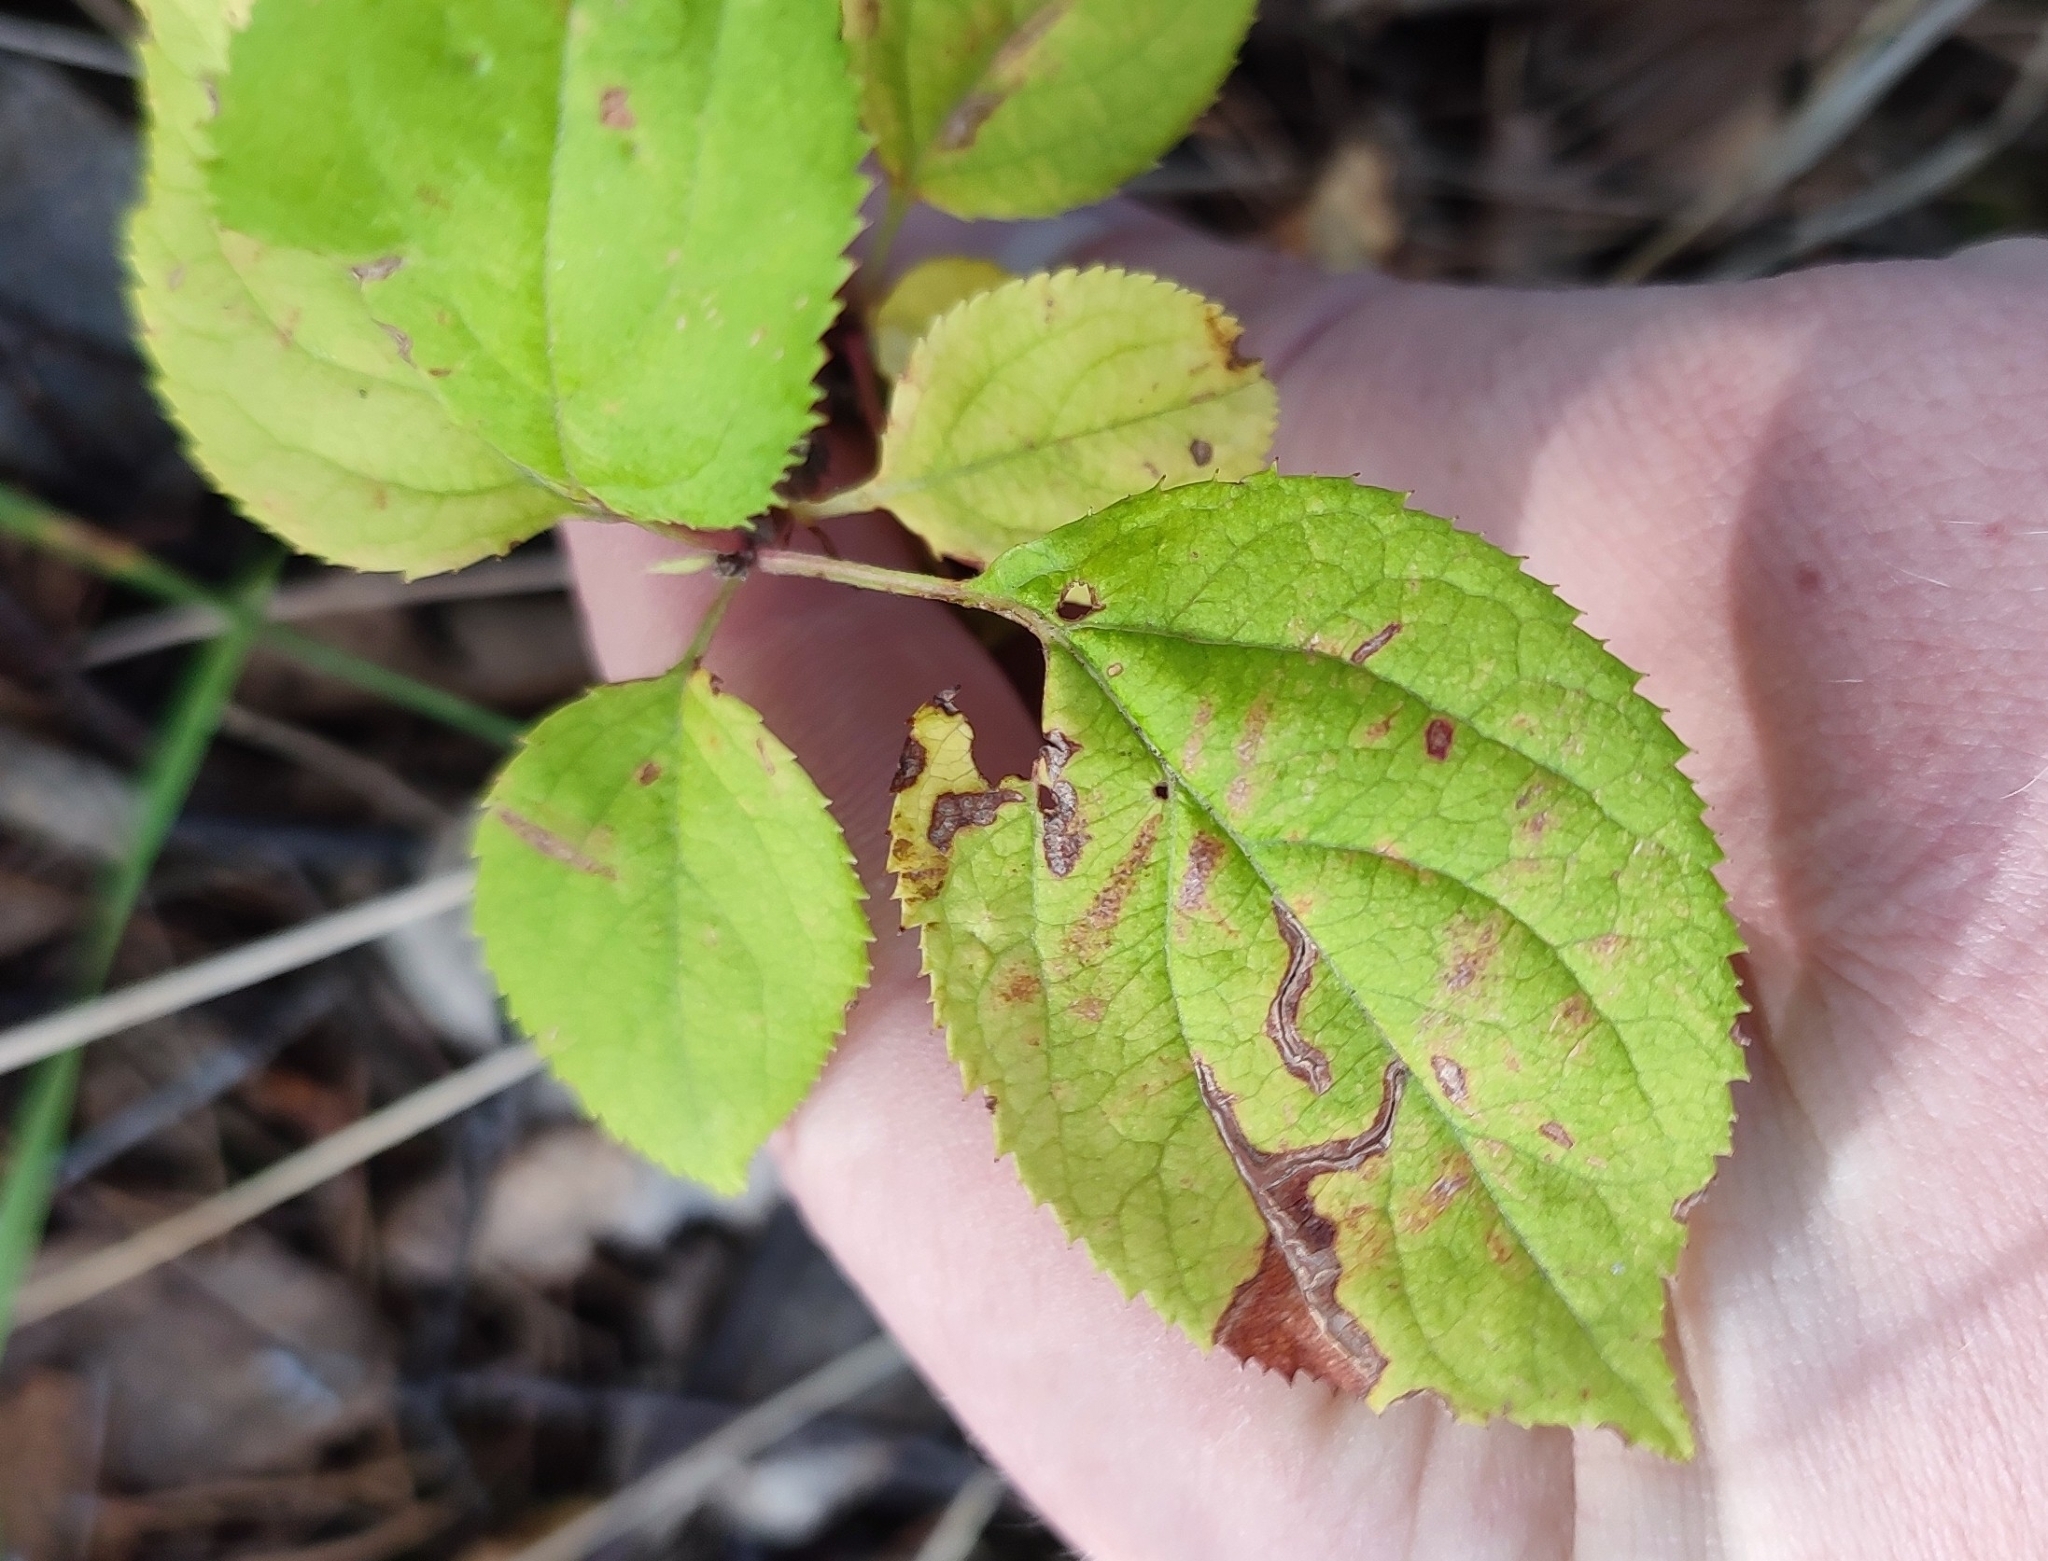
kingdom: Plantae
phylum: Tracheophyta
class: Magnoliopsida
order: Rosales
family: Rosaceae
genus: Malus
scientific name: Malus baccata
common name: Siberian crab
